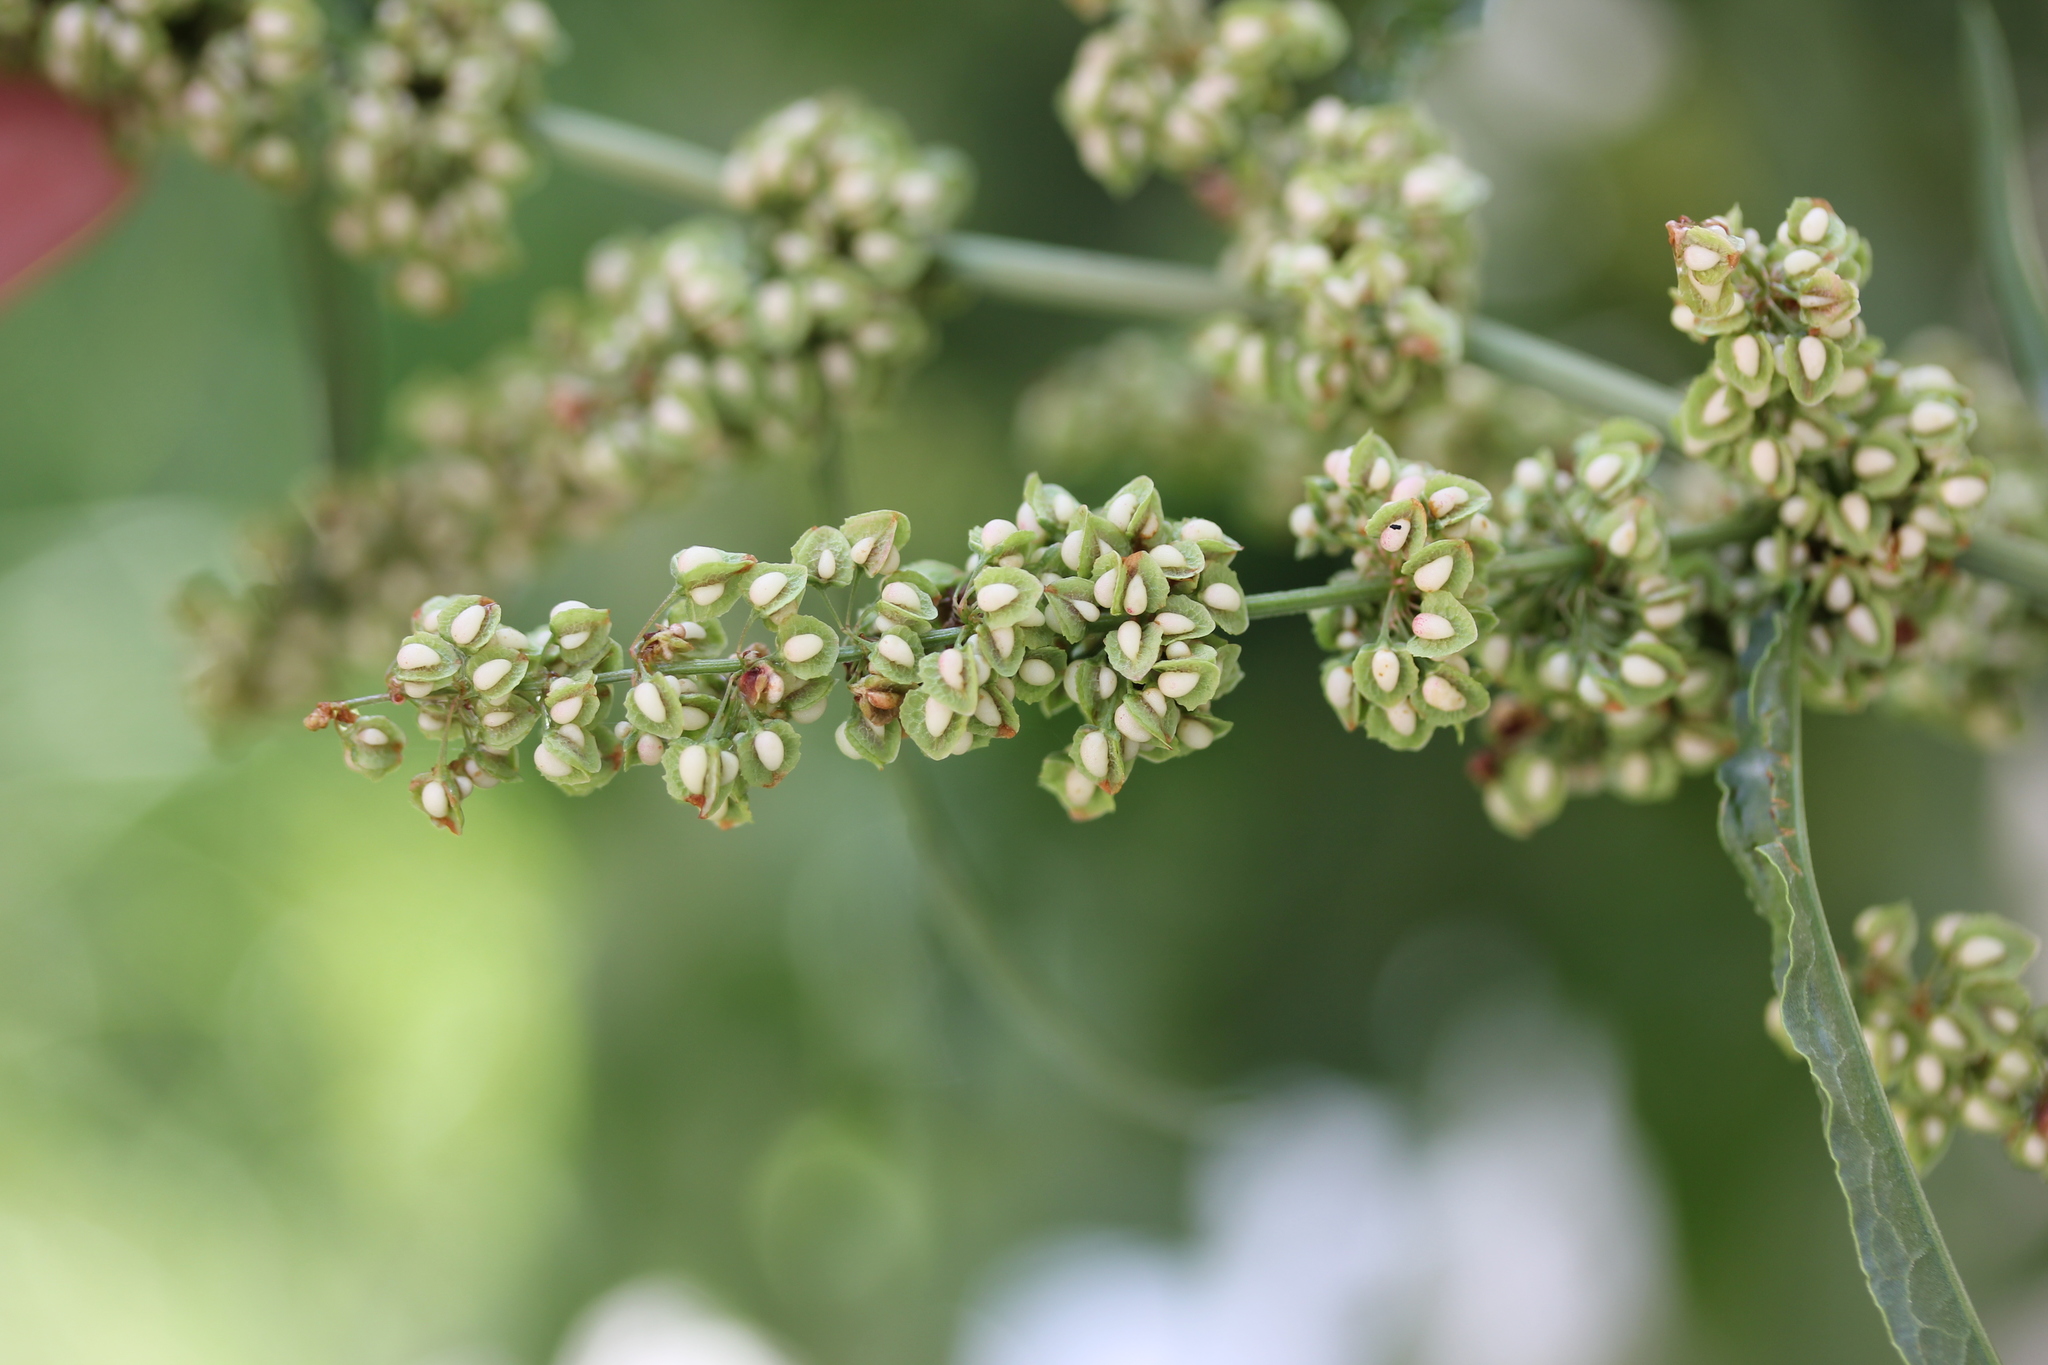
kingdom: Plantae
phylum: Tracheophyta
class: Magnoliopsida
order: Caryophyllales
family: Polygonaceae
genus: Rumex
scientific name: Rumex crispus
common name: Curled dock
